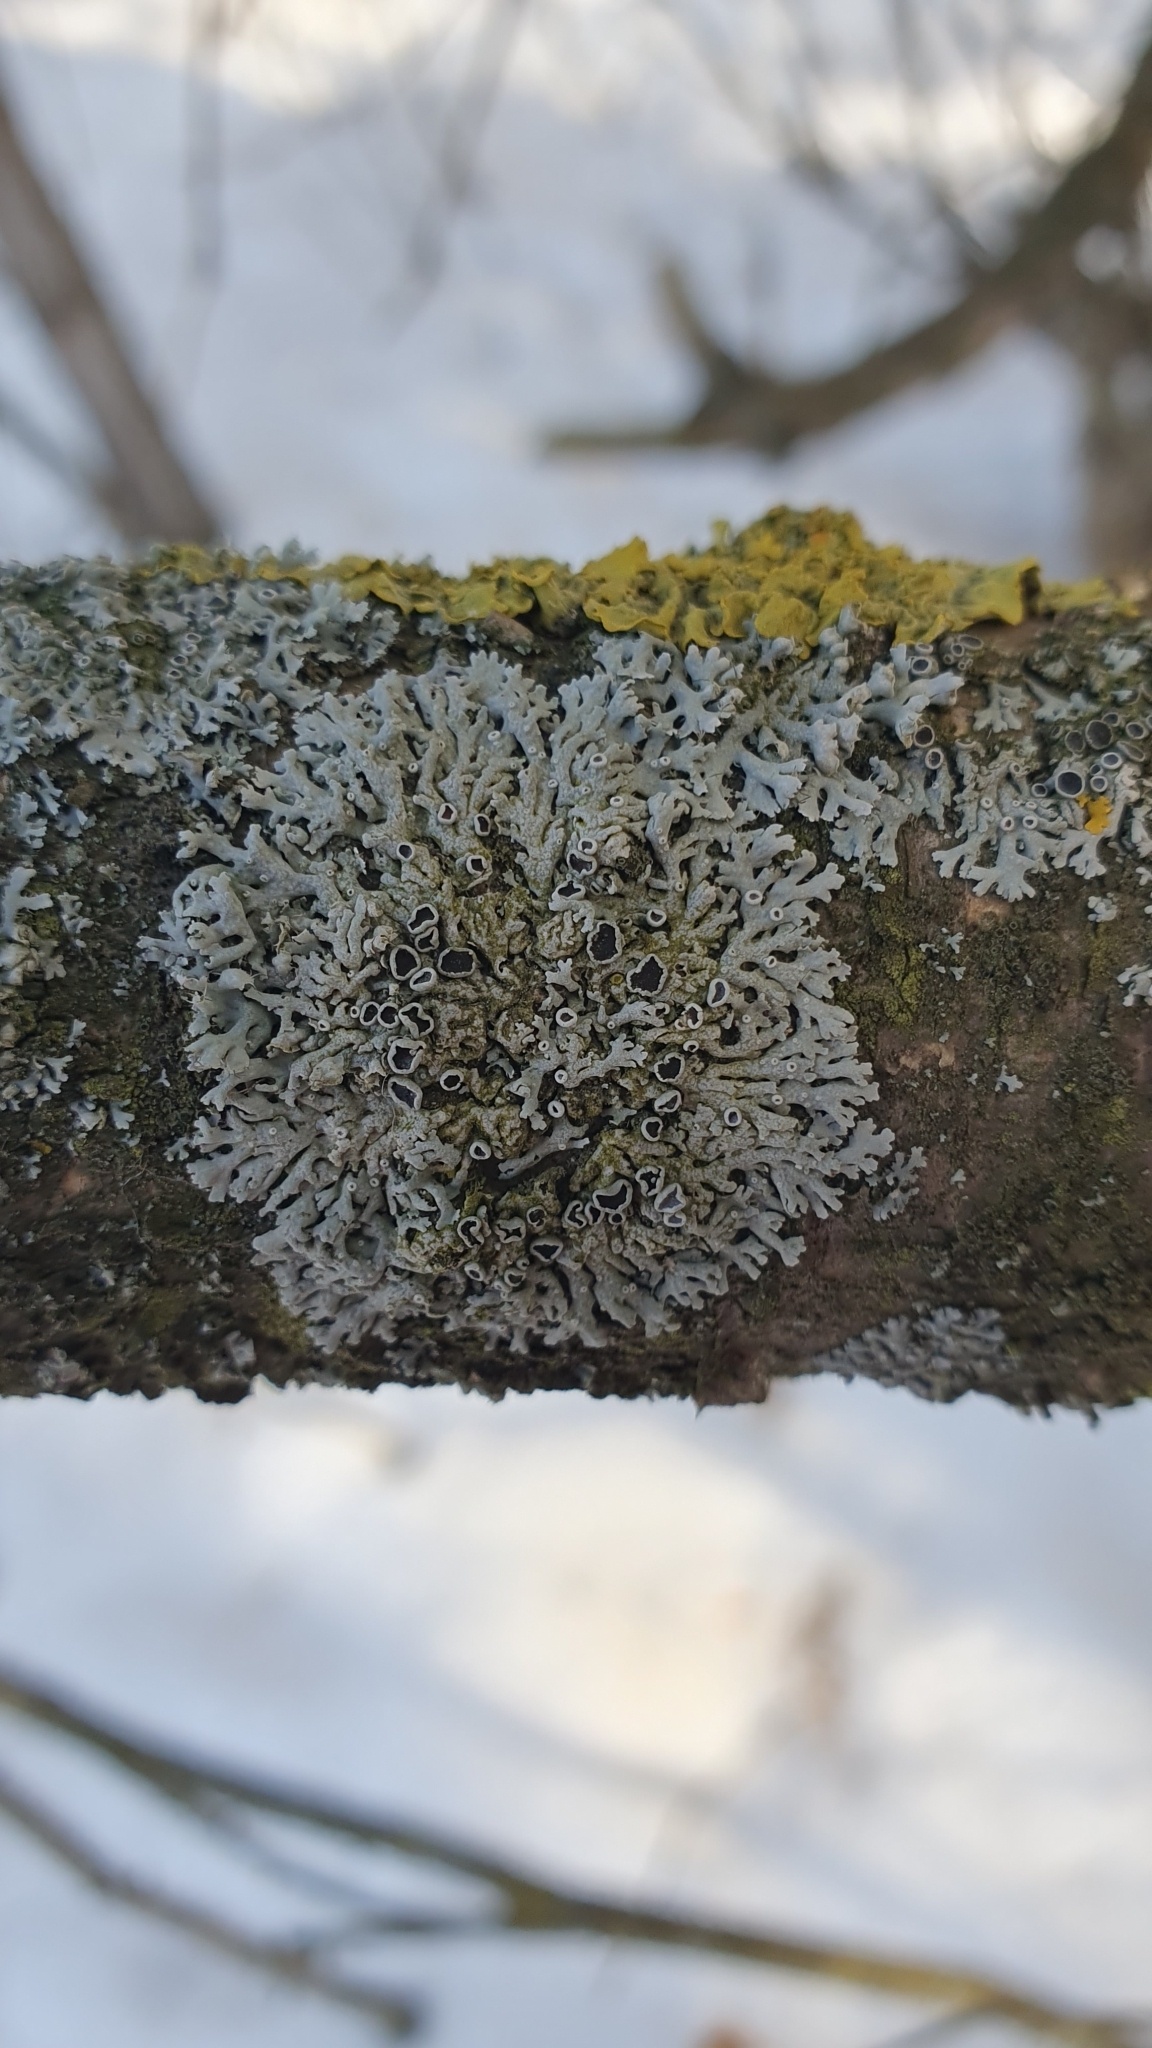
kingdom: Fungi
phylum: Ascomycota
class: Lecanoromycetes
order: Caliciales
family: Physciaceae
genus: Physcia
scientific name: Physcia stellaris
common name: Star rosette lichen
